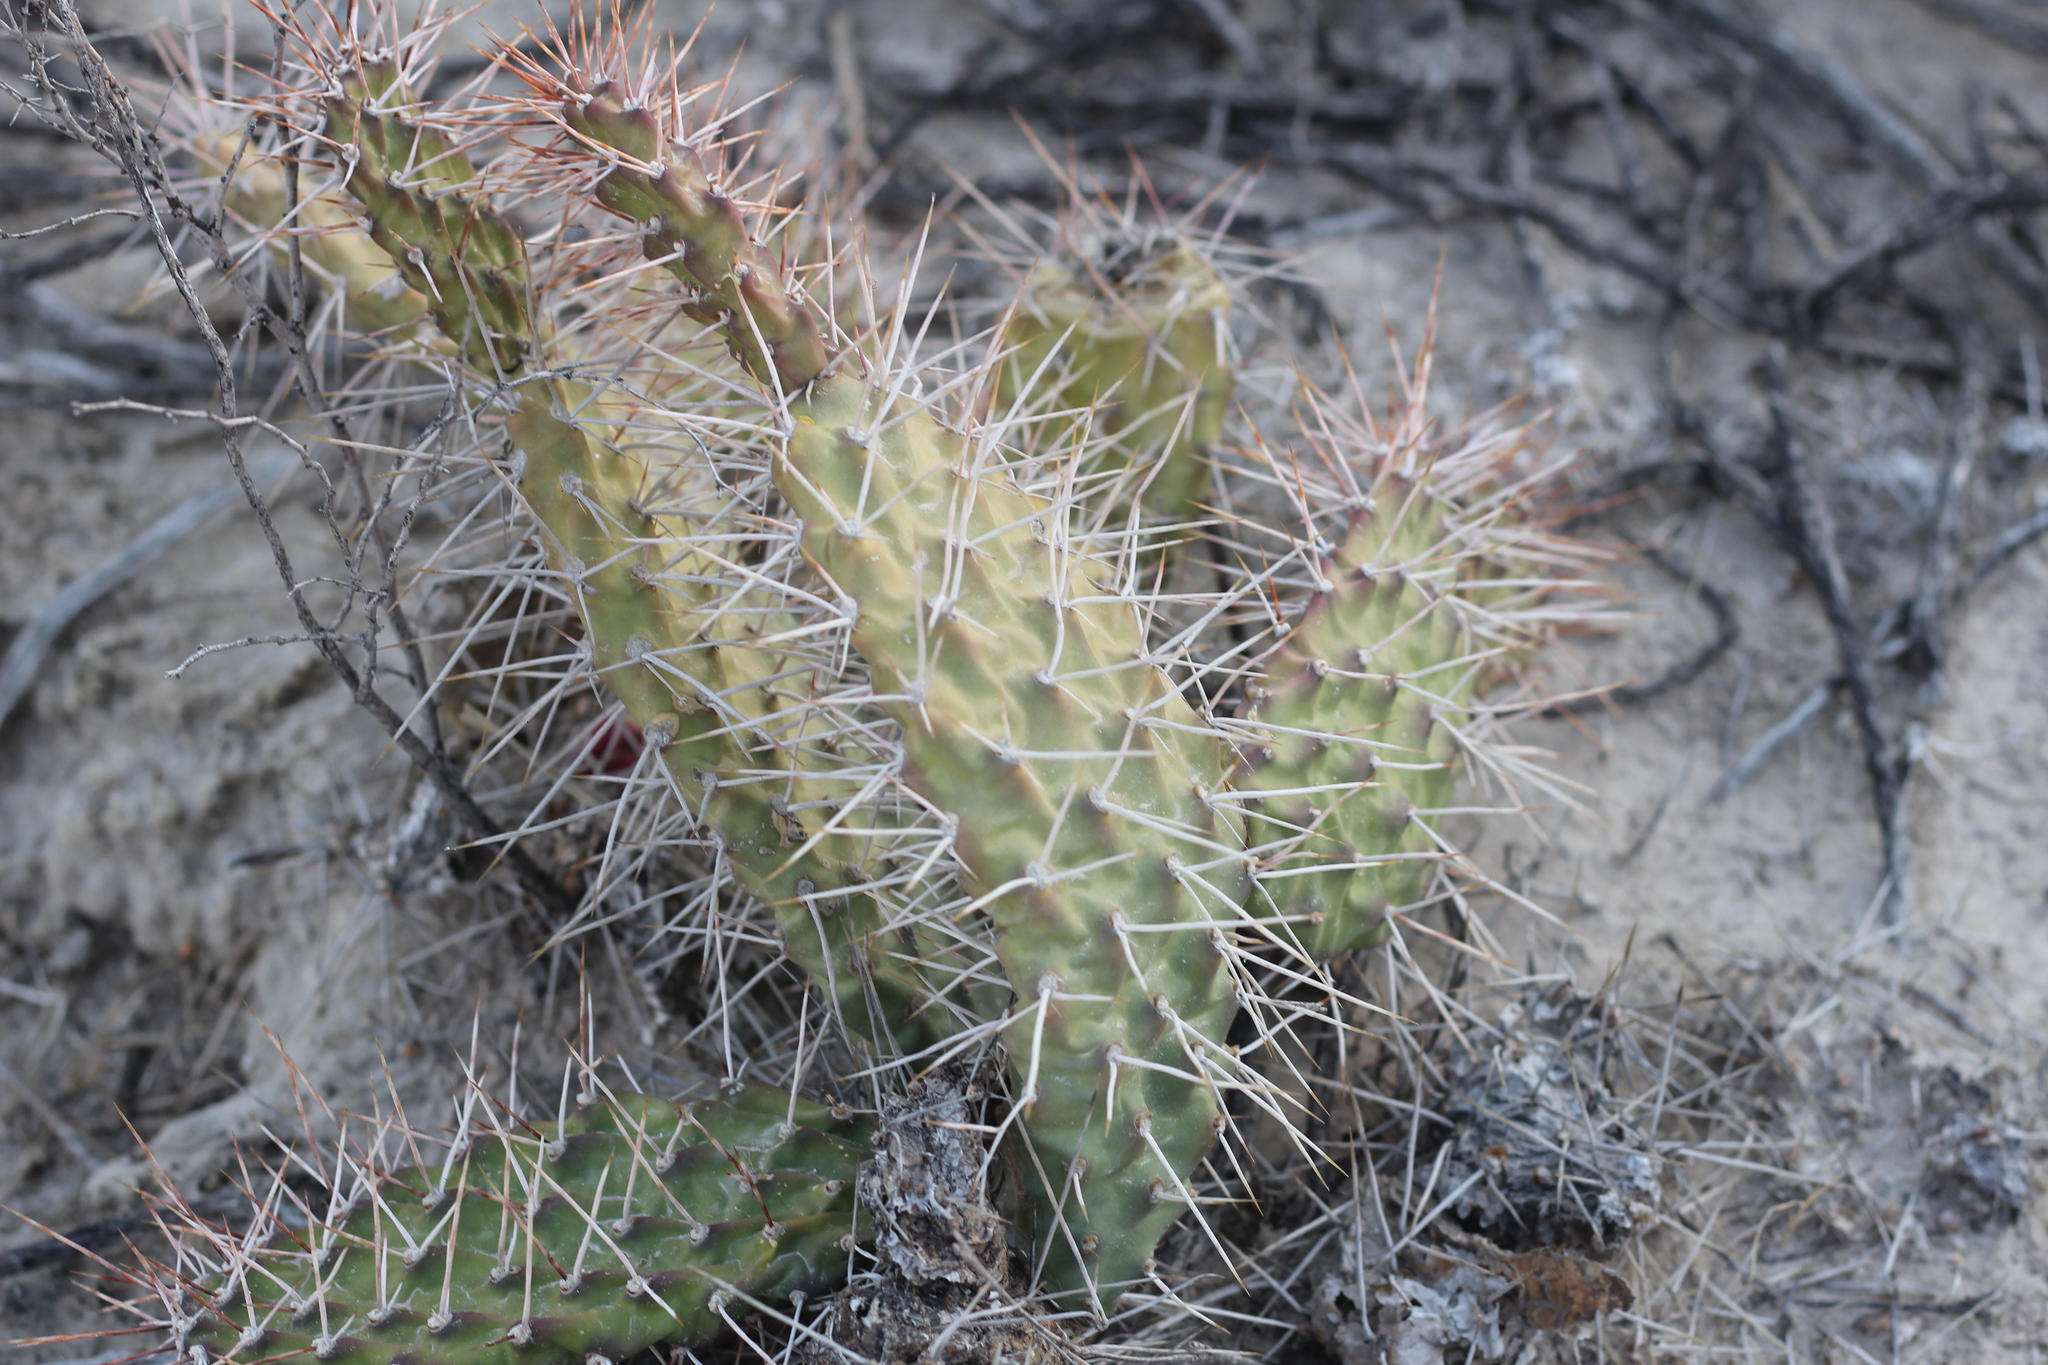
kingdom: Plantae
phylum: Tracheophyta
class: Magnoliopsida
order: Caryophyllales
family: Cactaceae
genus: Opuntia
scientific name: Opuntia sulphurea
